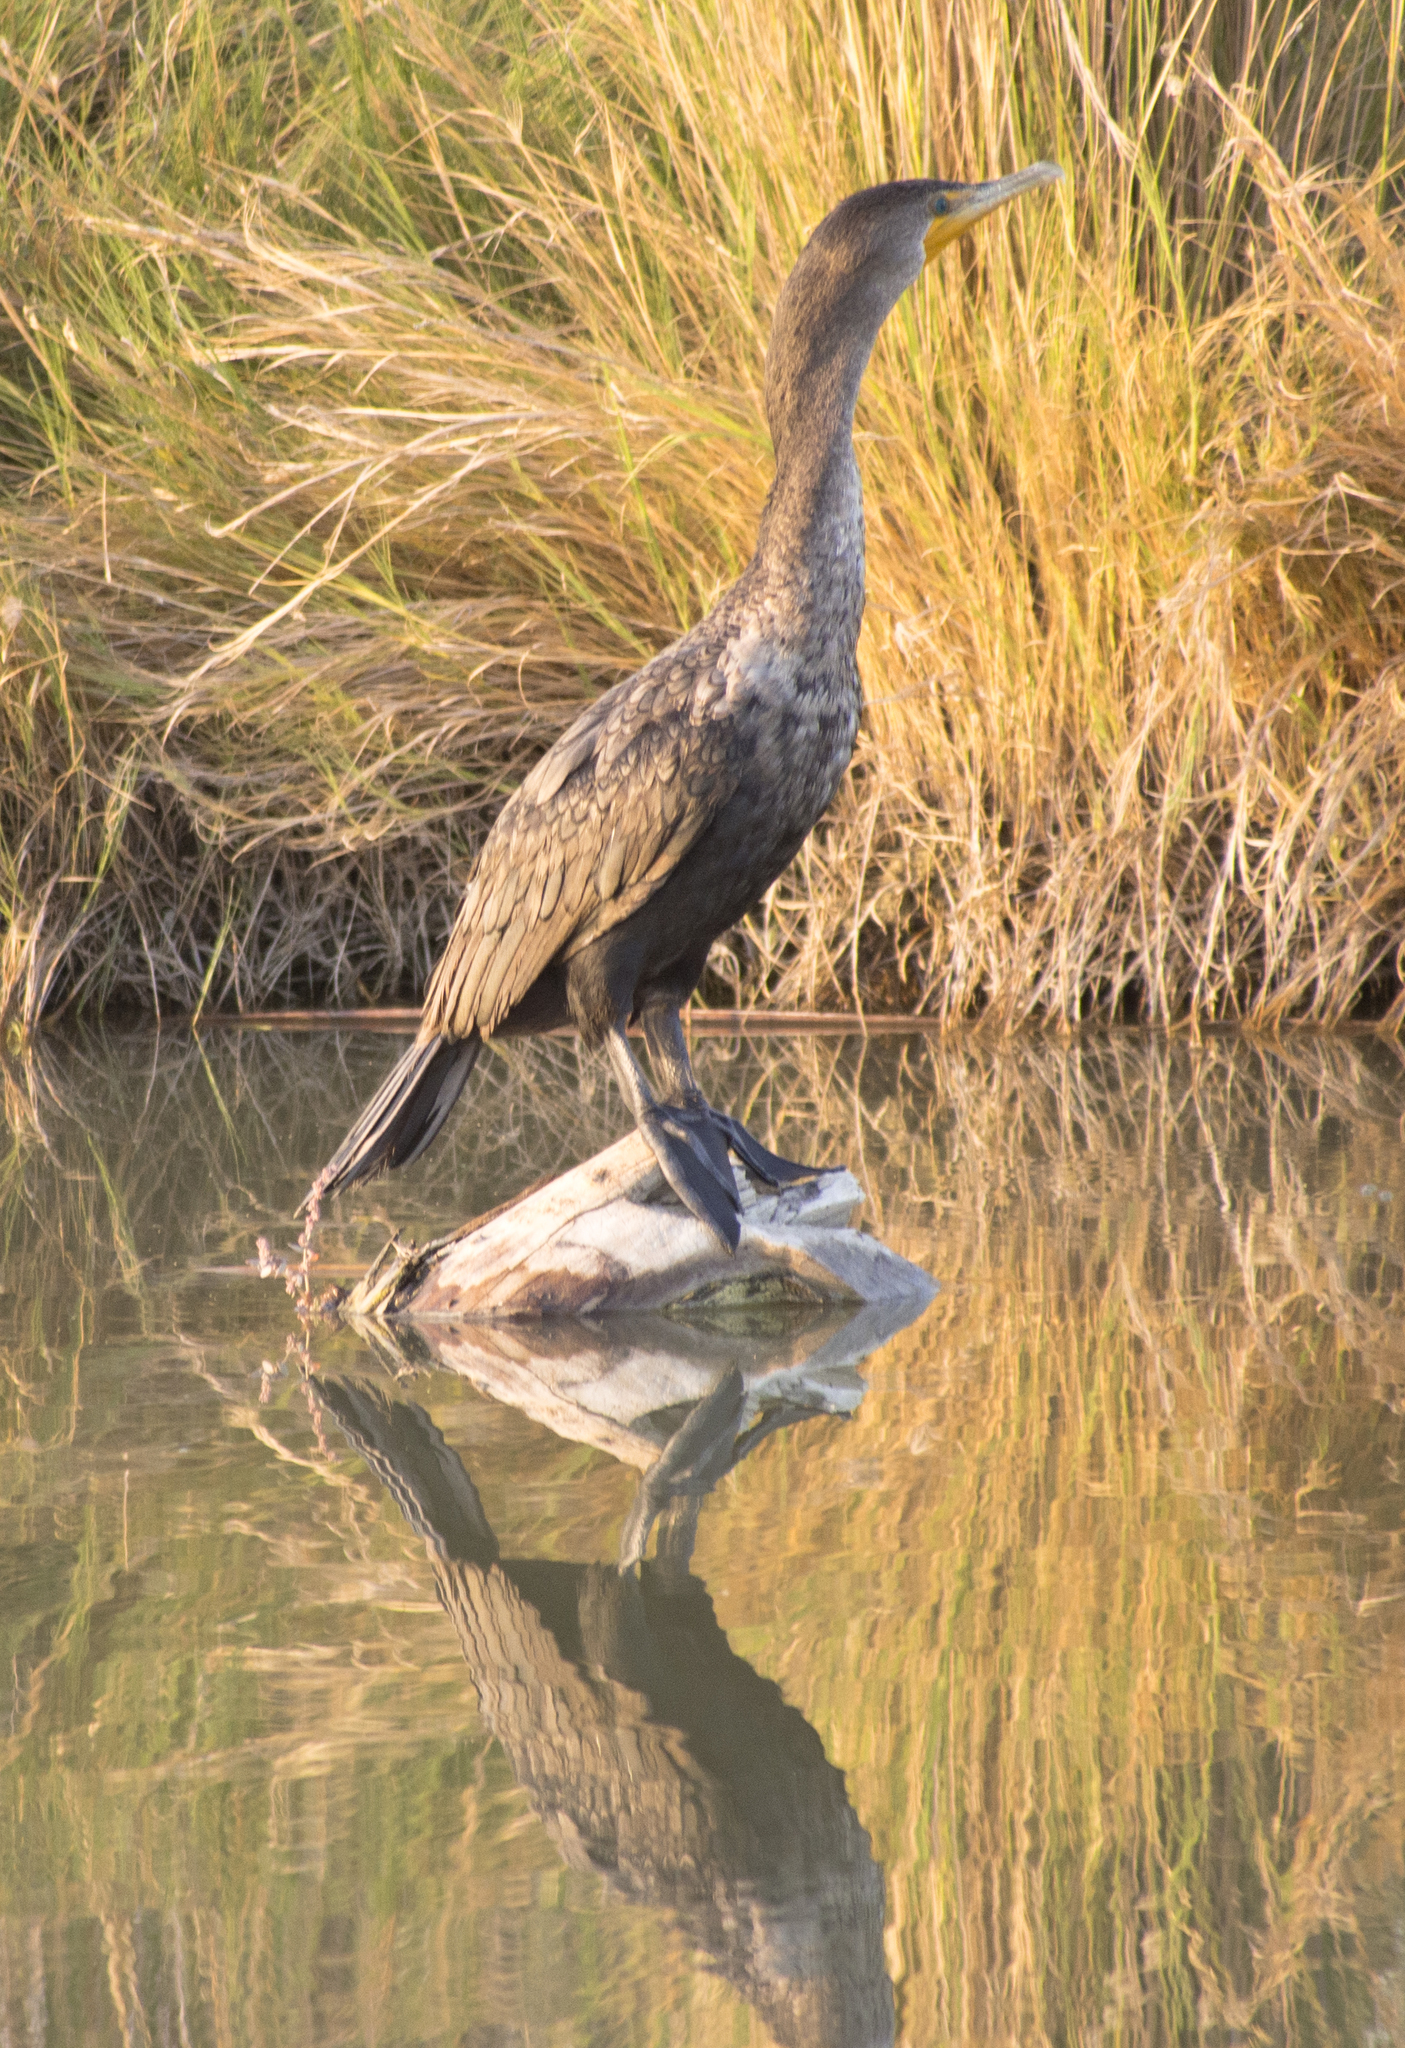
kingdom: Animalia
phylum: Chordata
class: Aves
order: Suliformes
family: Phalacrocoracidae
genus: Phalacrocorax
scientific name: Phalacrocorax auritus
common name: Double-crested cormorant
